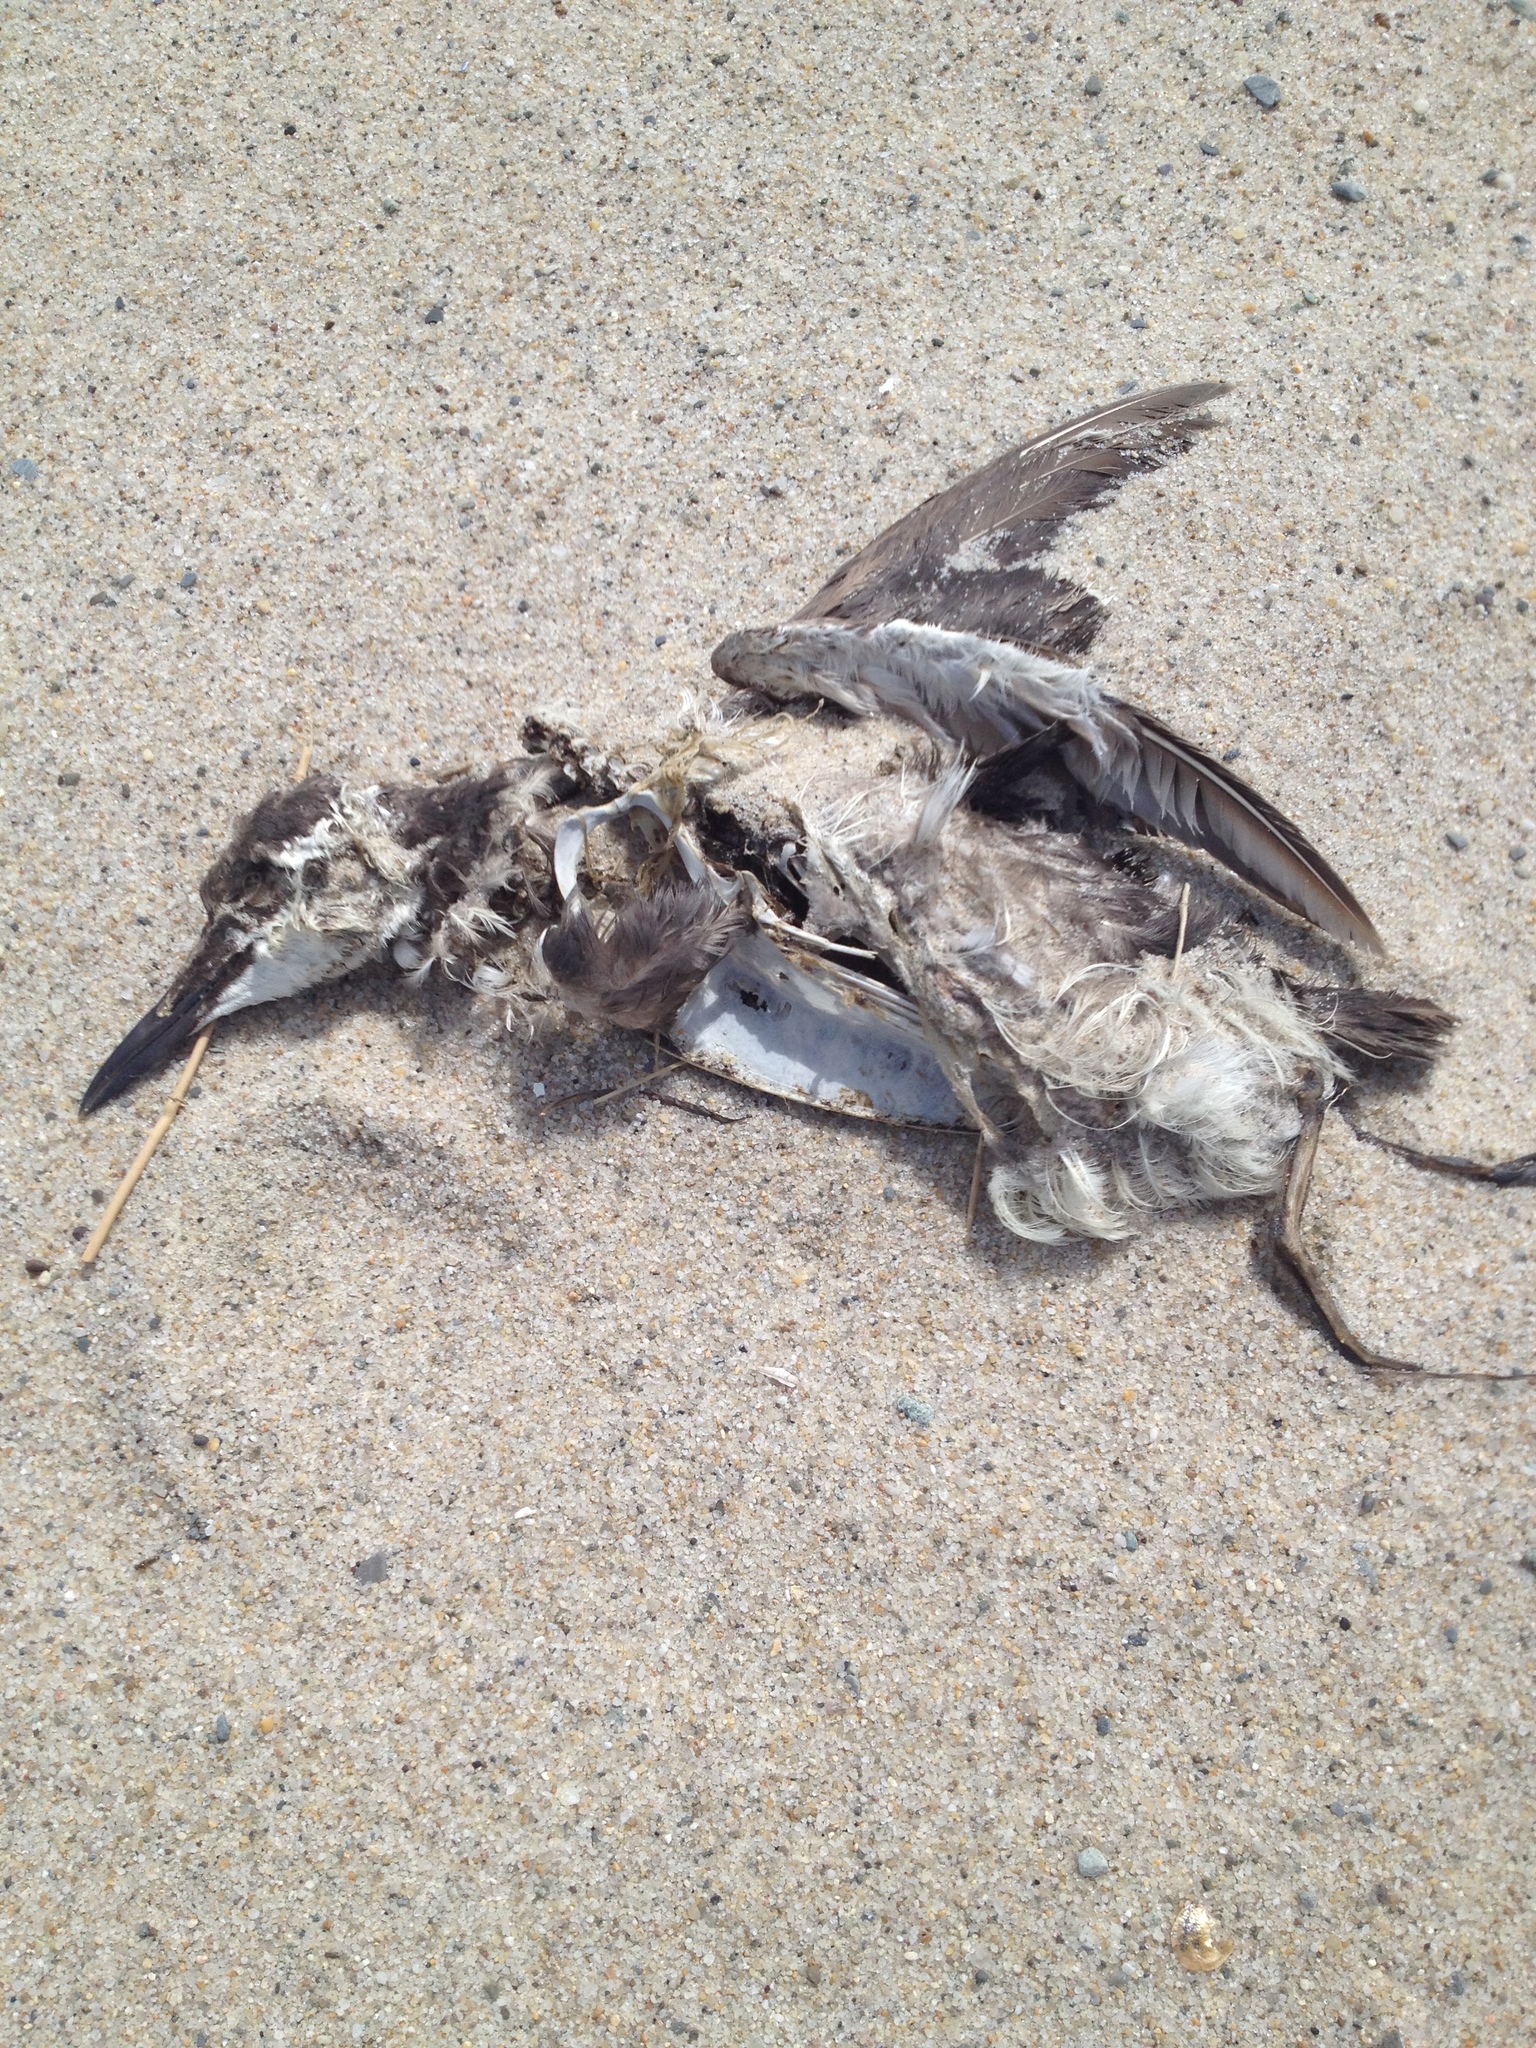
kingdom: Animalia
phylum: Chordata
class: Aves
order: Charadriiformes
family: Alcidae
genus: Uria
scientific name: Uria aalge
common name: Common murre
